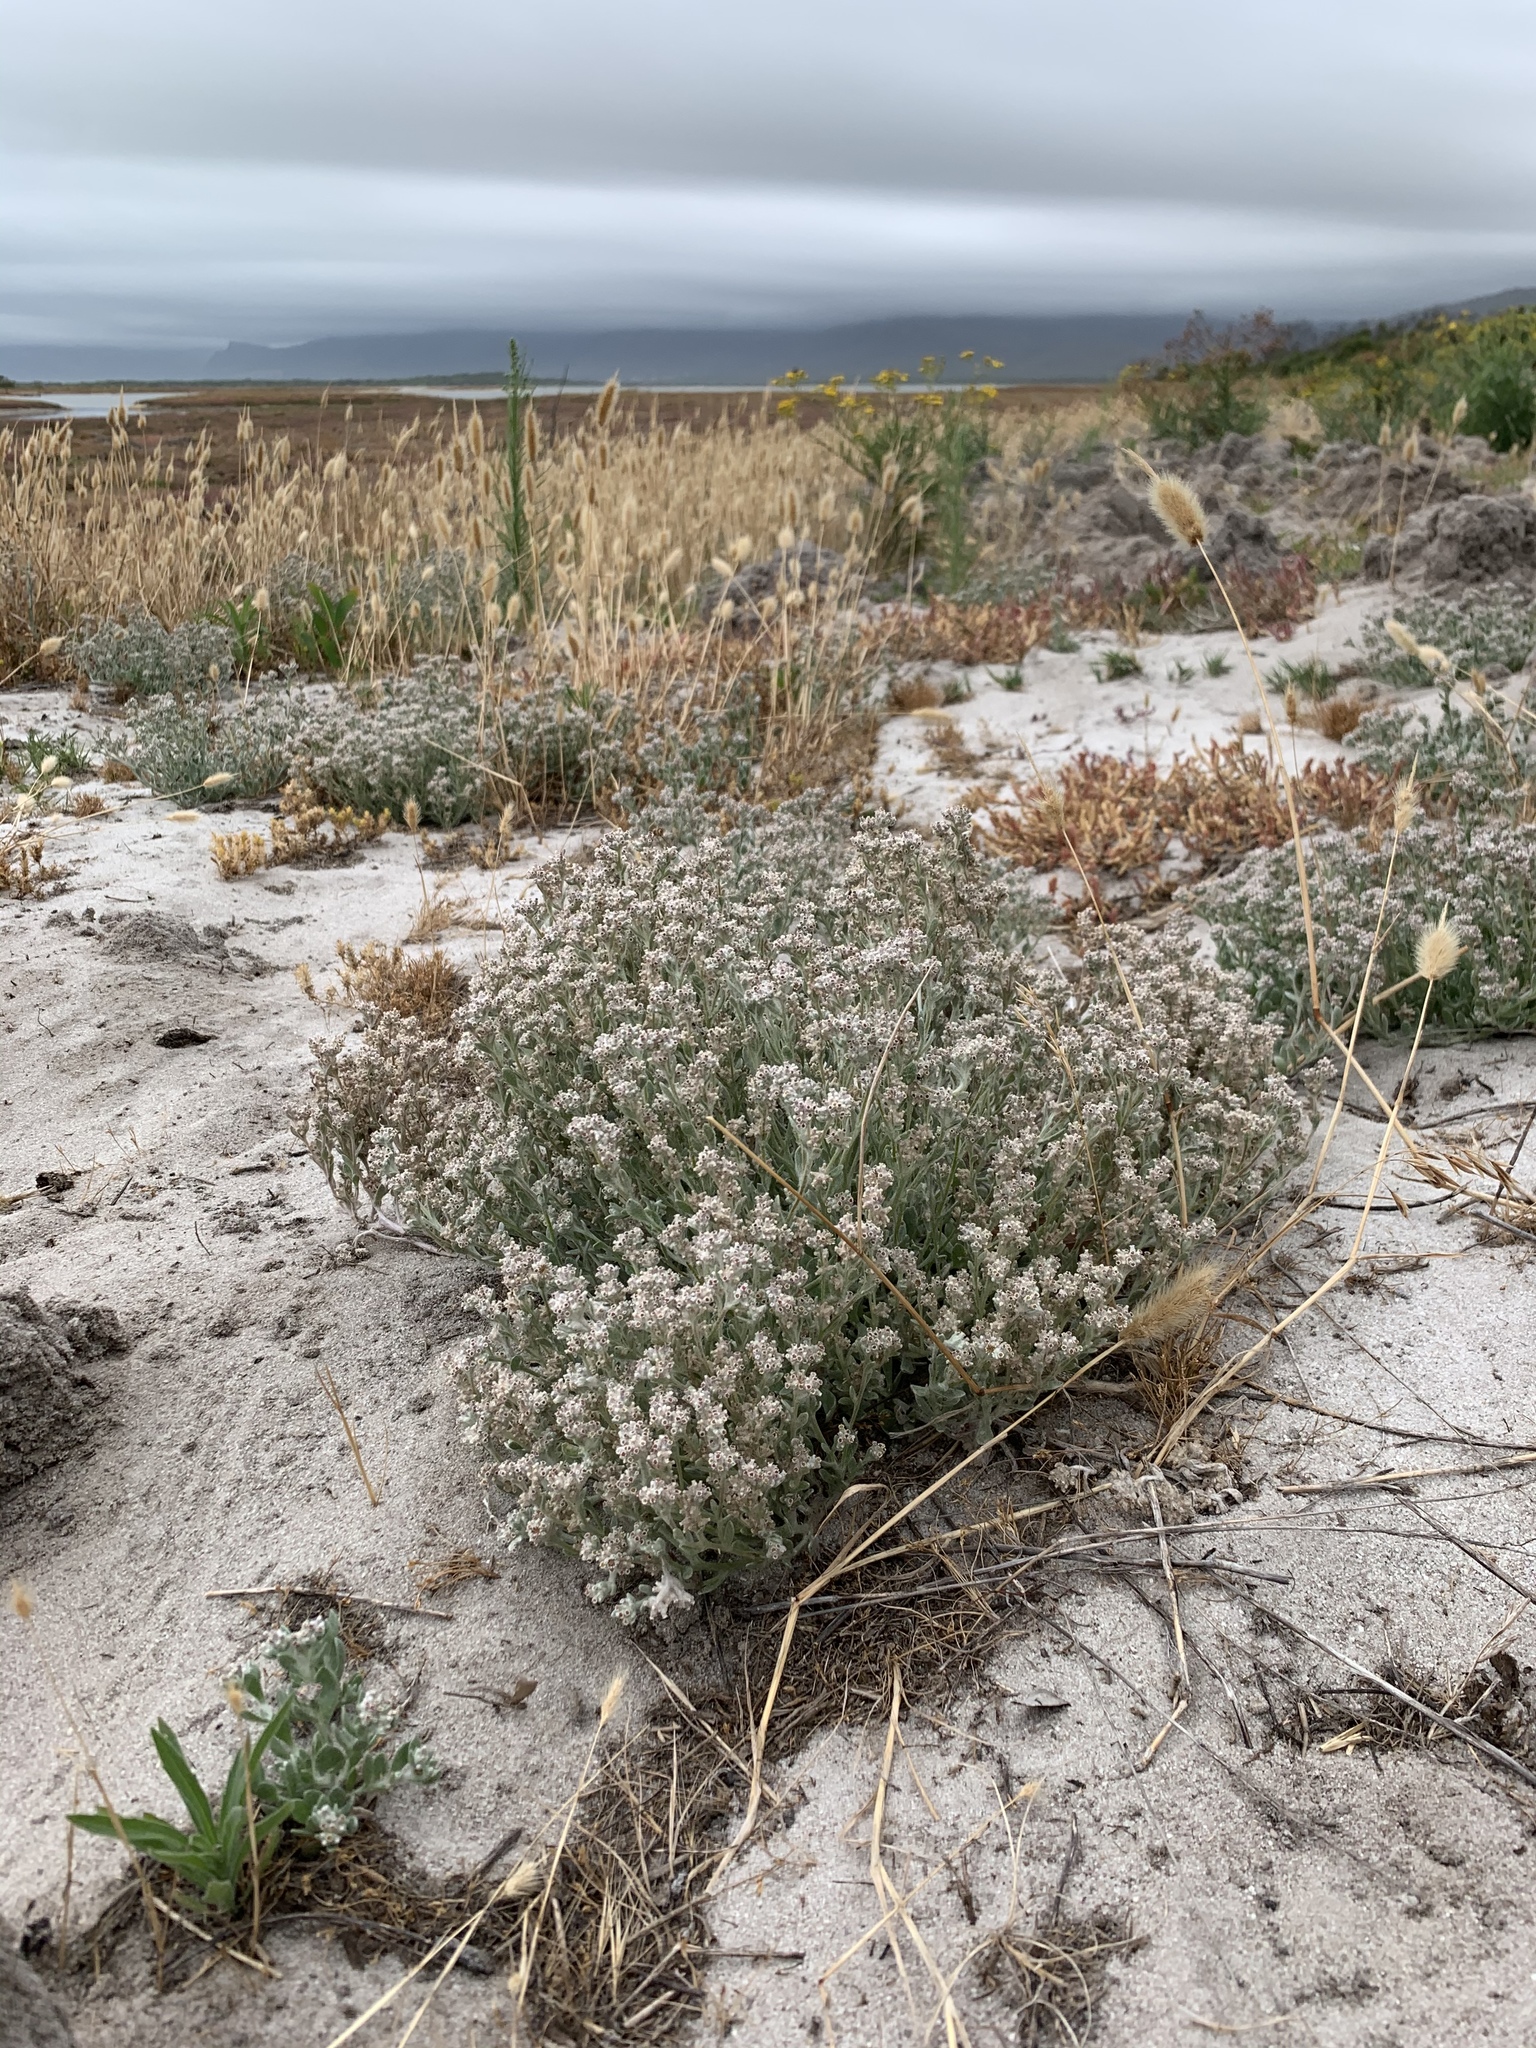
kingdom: Plantae
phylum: Tracheophyta
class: Magnoliopsida
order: Asterales
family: Asteraceae
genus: Vellereophyton
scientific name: Vellereophyton dealbatum
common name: White-cudweed
